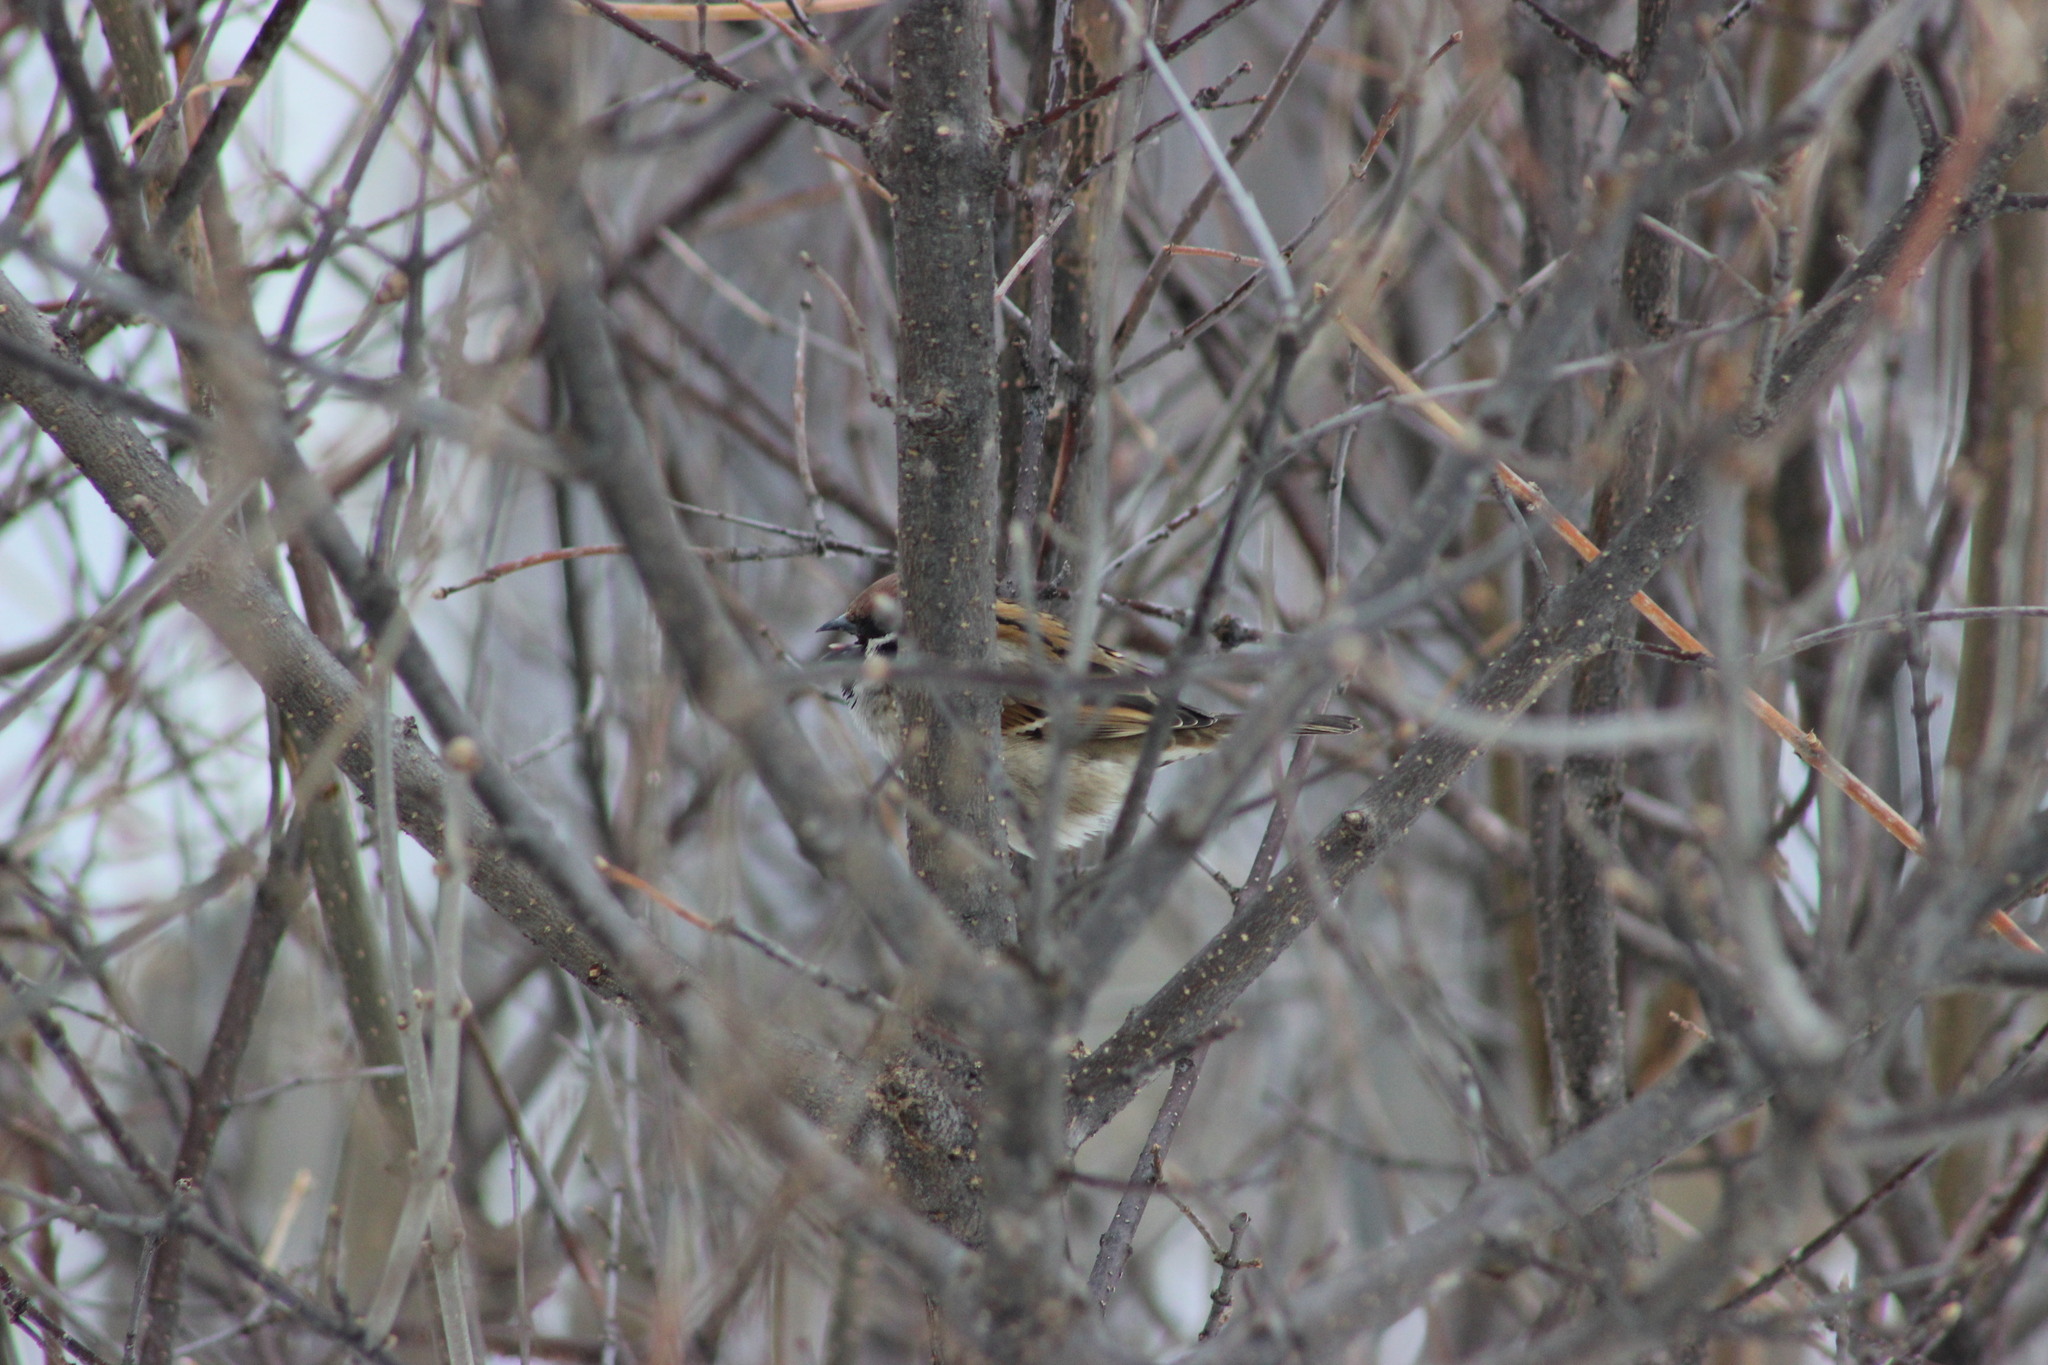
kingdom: Animalia
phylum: Chordata
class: Aves
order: Passeriformes
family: Passeridae
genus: Passer
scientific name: Passer montanus
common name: Eurasian tree sparrow
